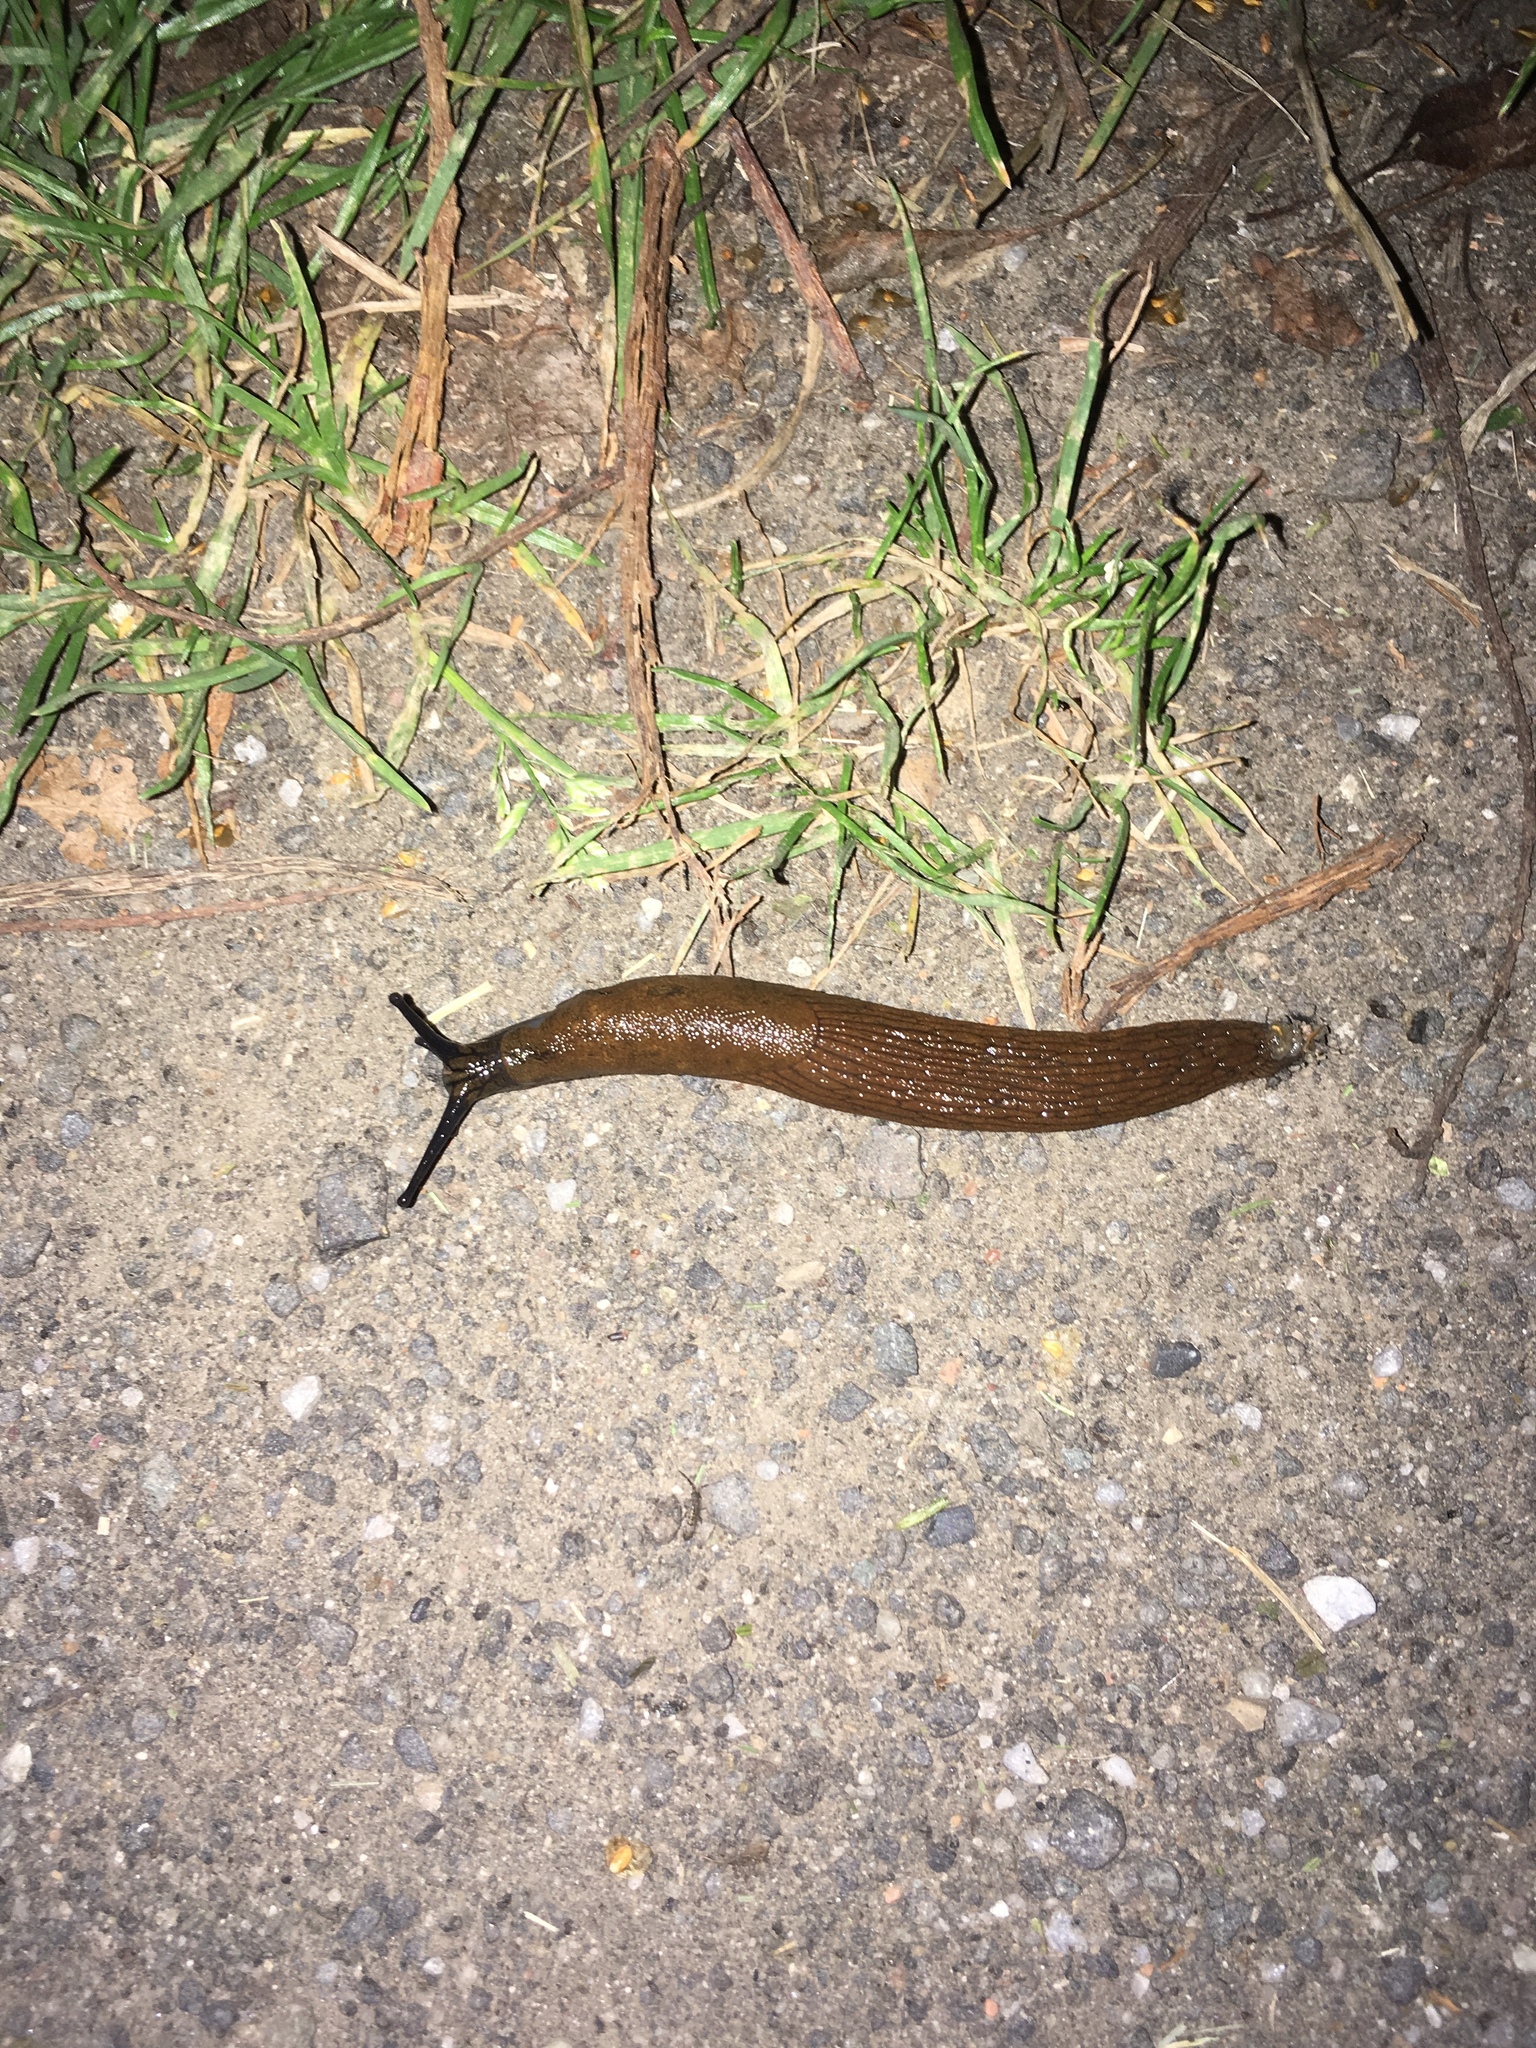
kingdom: Animalia
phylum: Mollusca
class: Gastropoda
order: Stylommatophora
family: Arionidae
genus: Arion
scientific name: Arion
